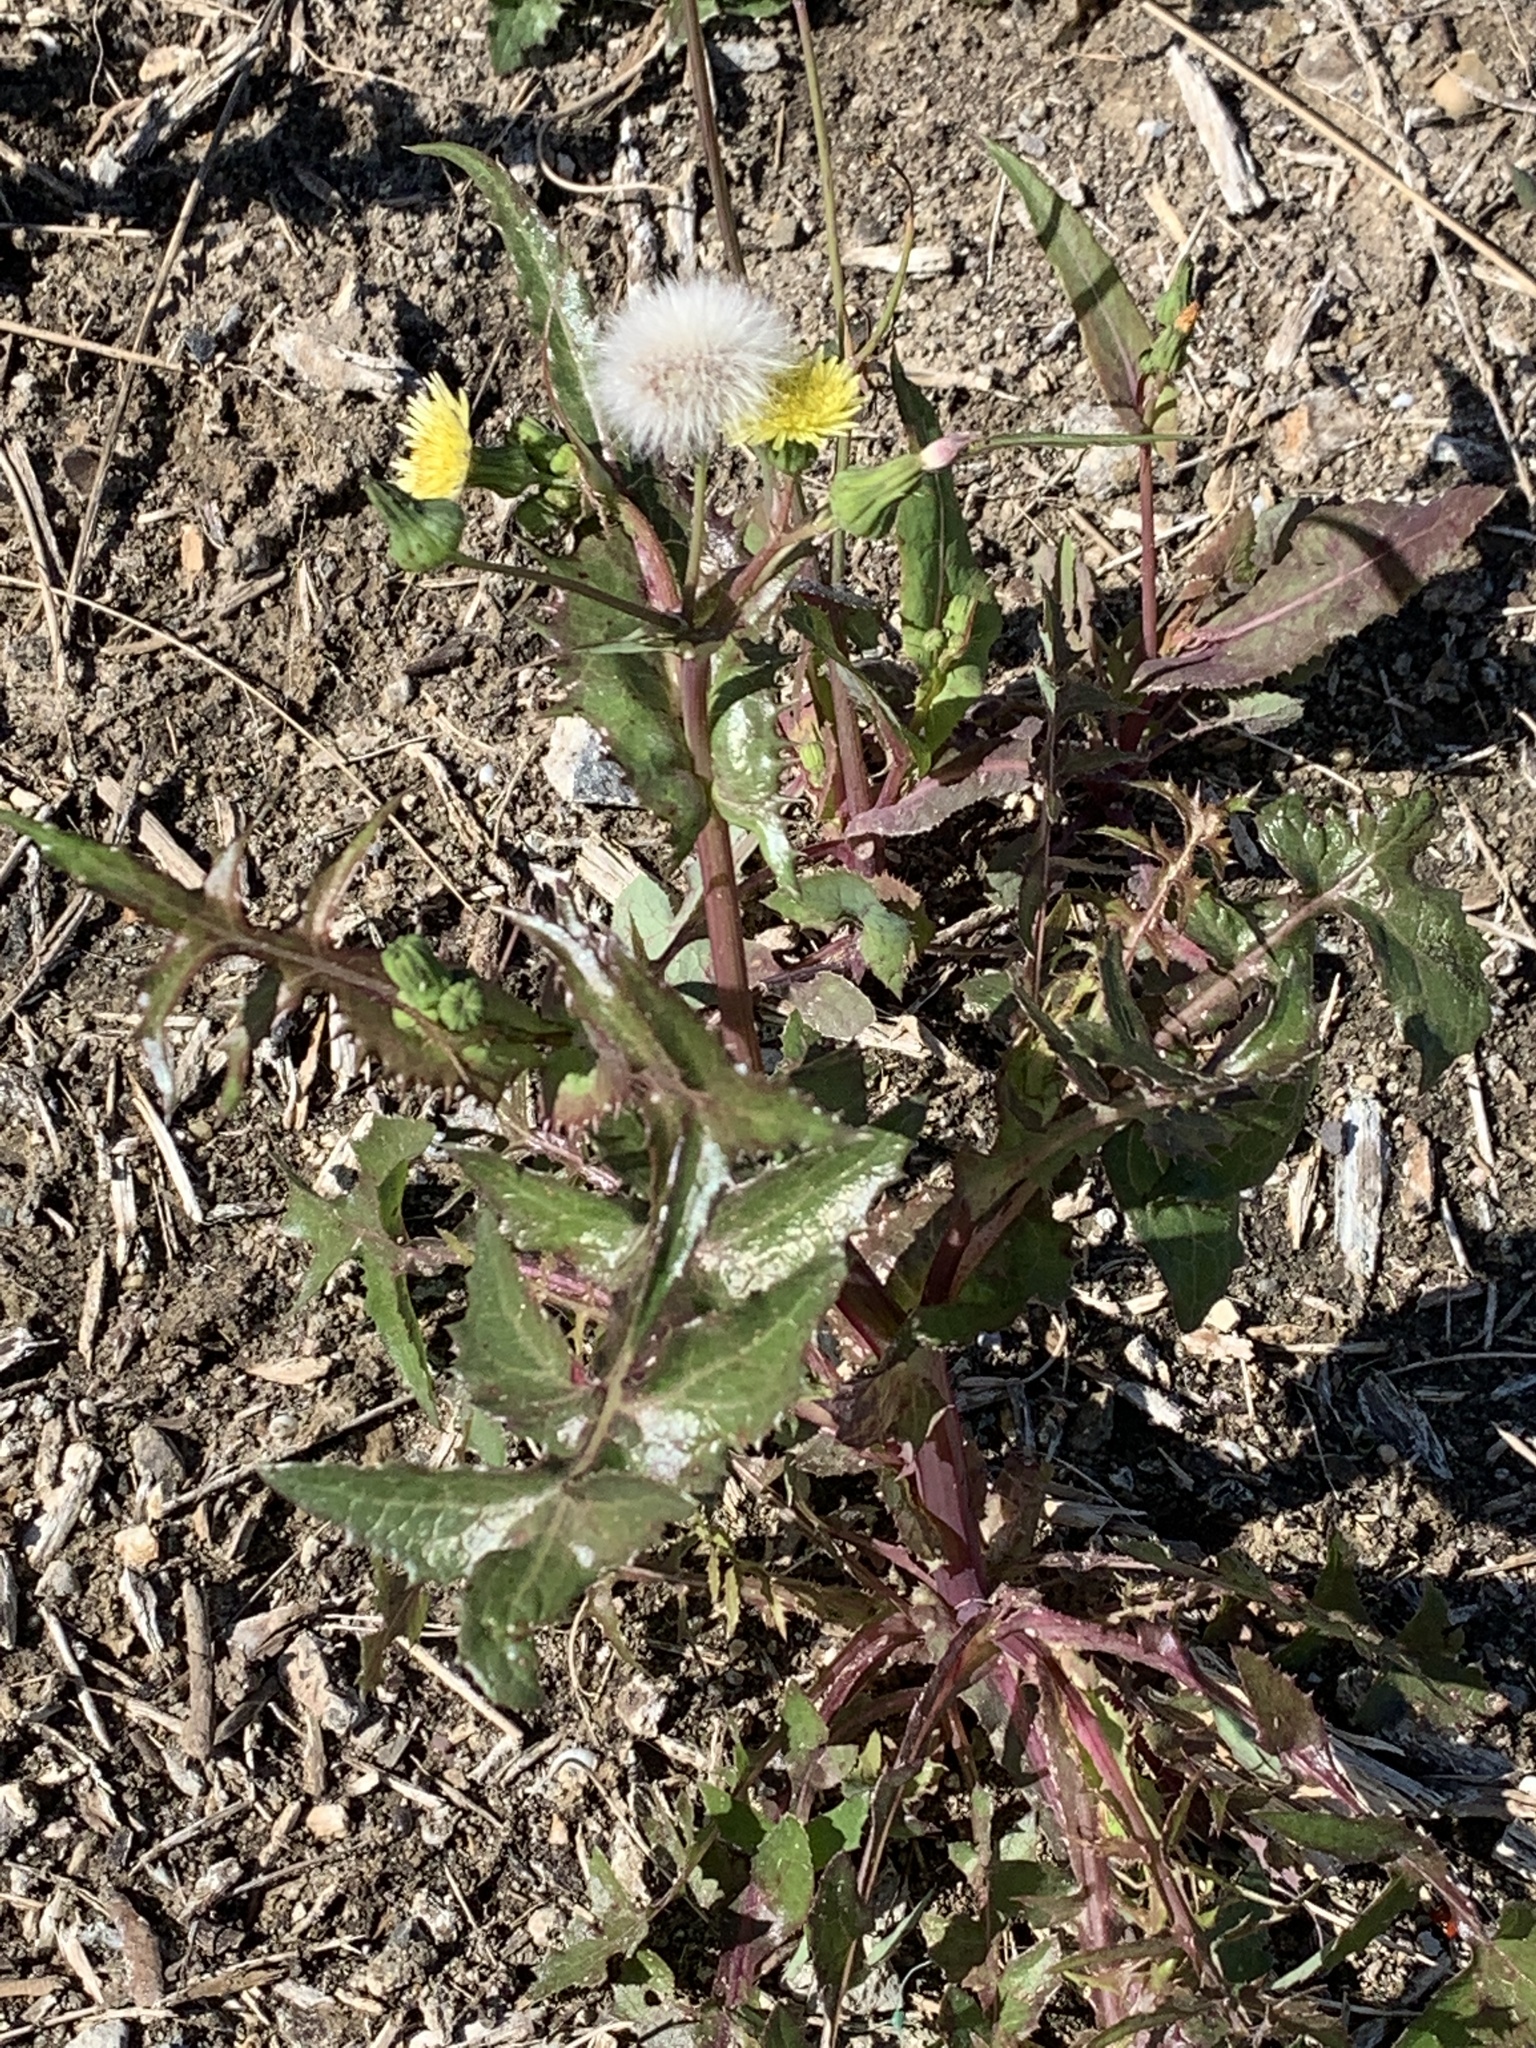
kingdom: Plantae
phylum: Tracheophyta
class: Magnoliopsida
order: Asterales
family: Asteraceae
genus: Sonchus
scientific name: Sonchus oleraceus
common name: Common sowthistle
